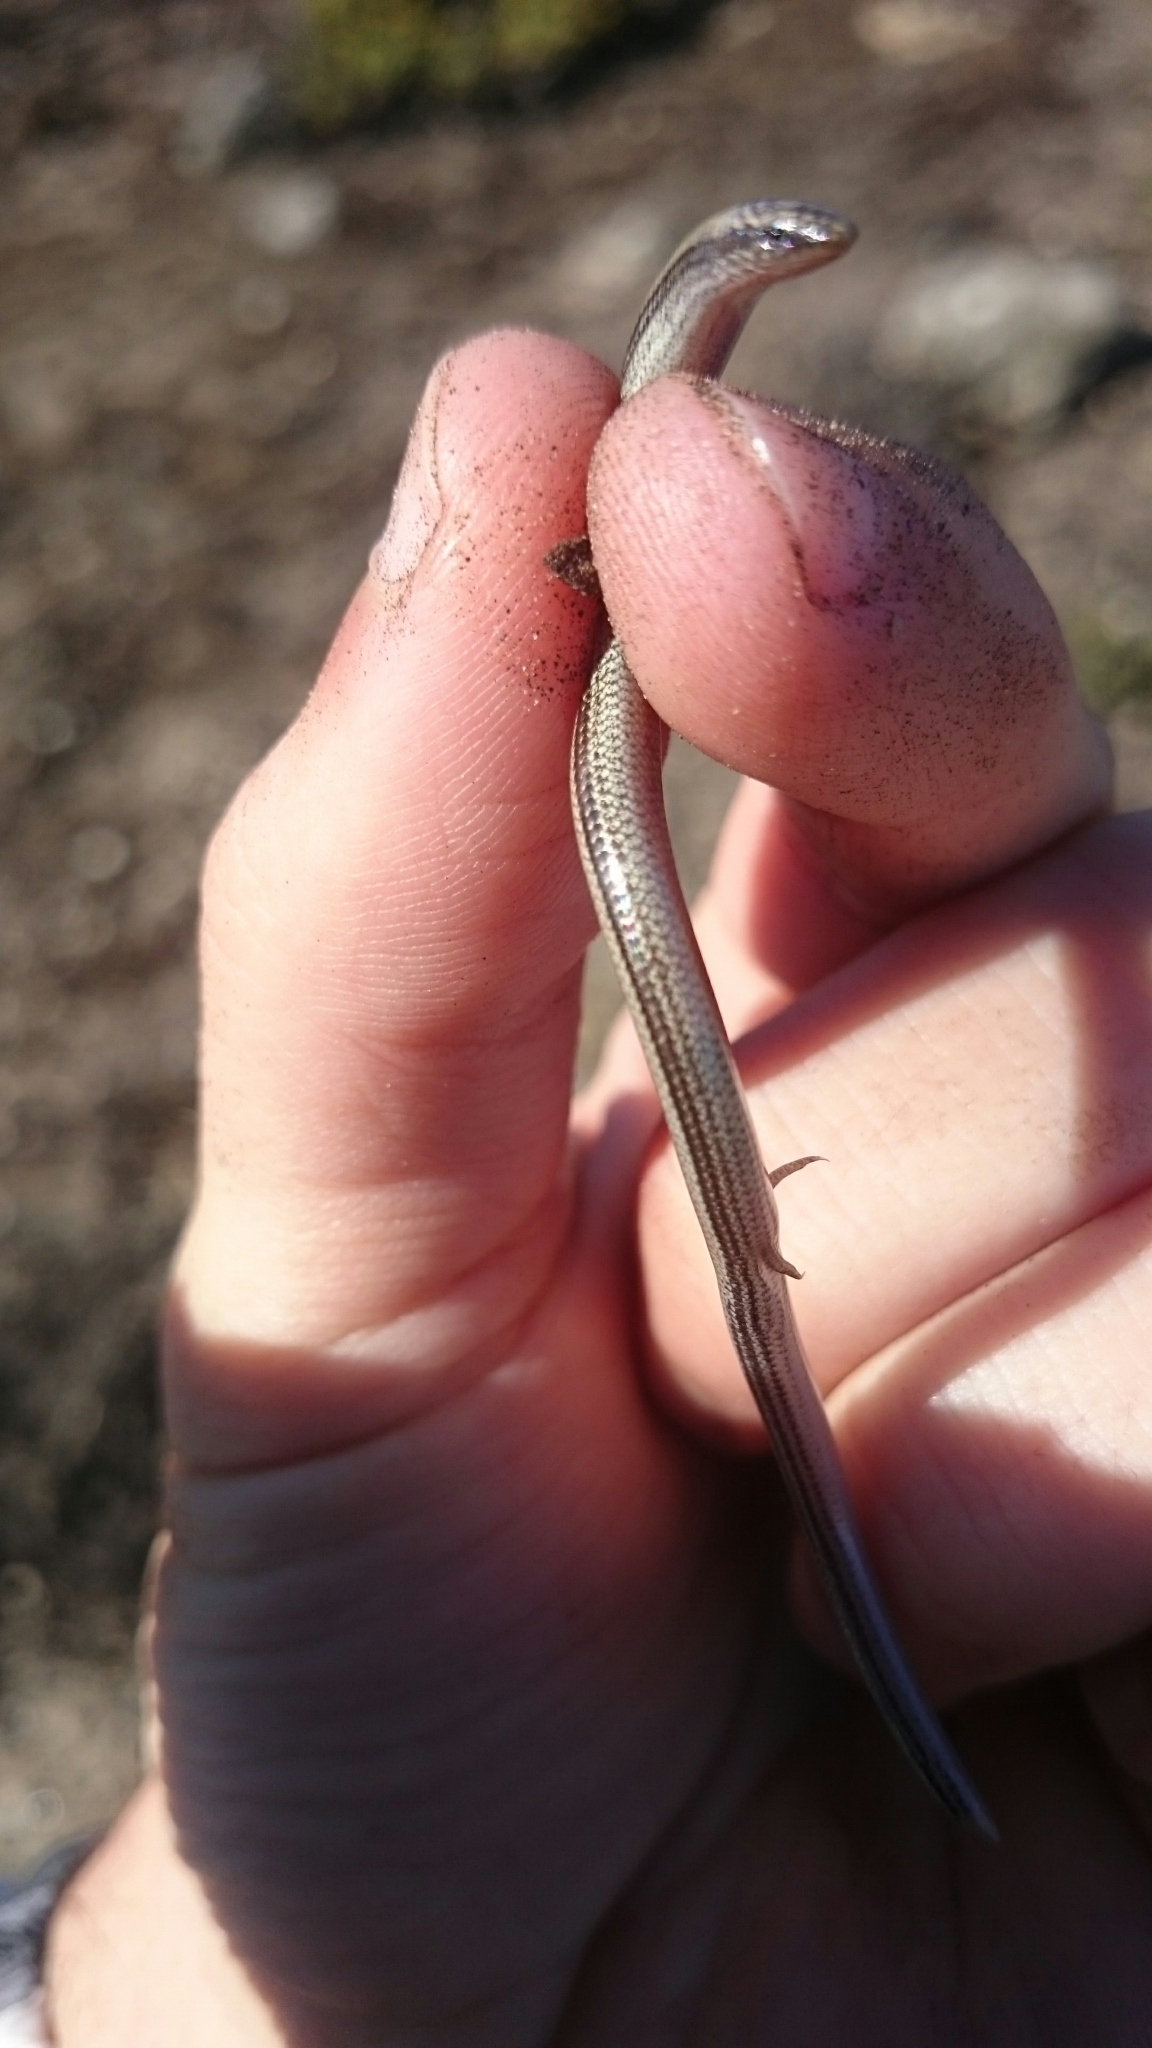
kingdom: Animalia
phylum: Chordata
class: Squamata
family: Scincidae
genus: Scelotes
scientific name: Scelotes gronovii
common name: Gronovi's dwarf burrowing skink
